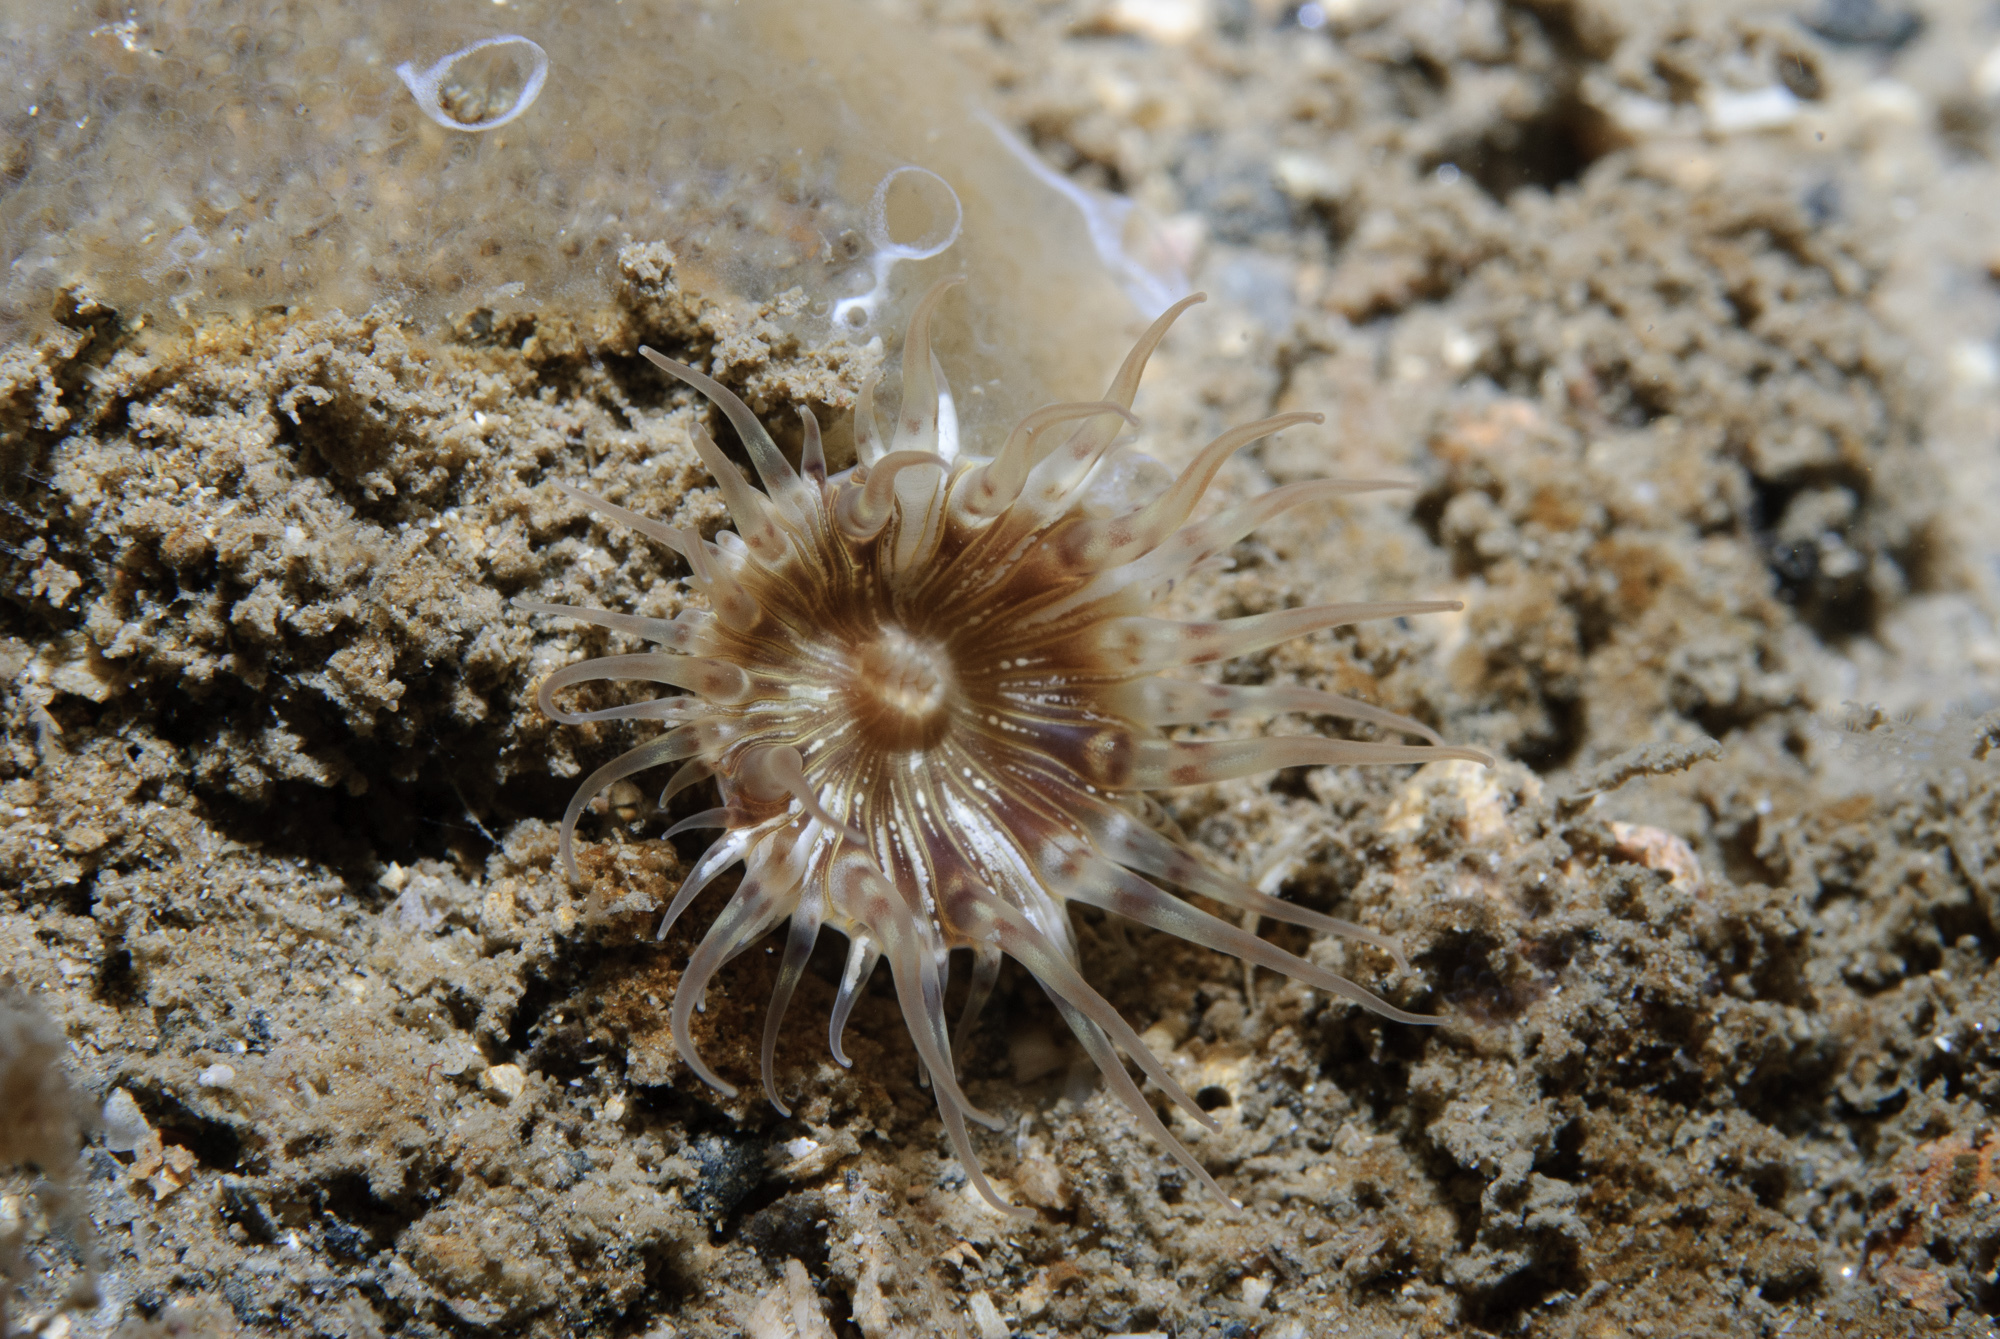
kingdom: Animalia
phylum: Cnidaria
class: Anthozoa
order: Actiniaria
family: Hormathiidae
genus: Hormathia
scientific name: Hormathia coronata
